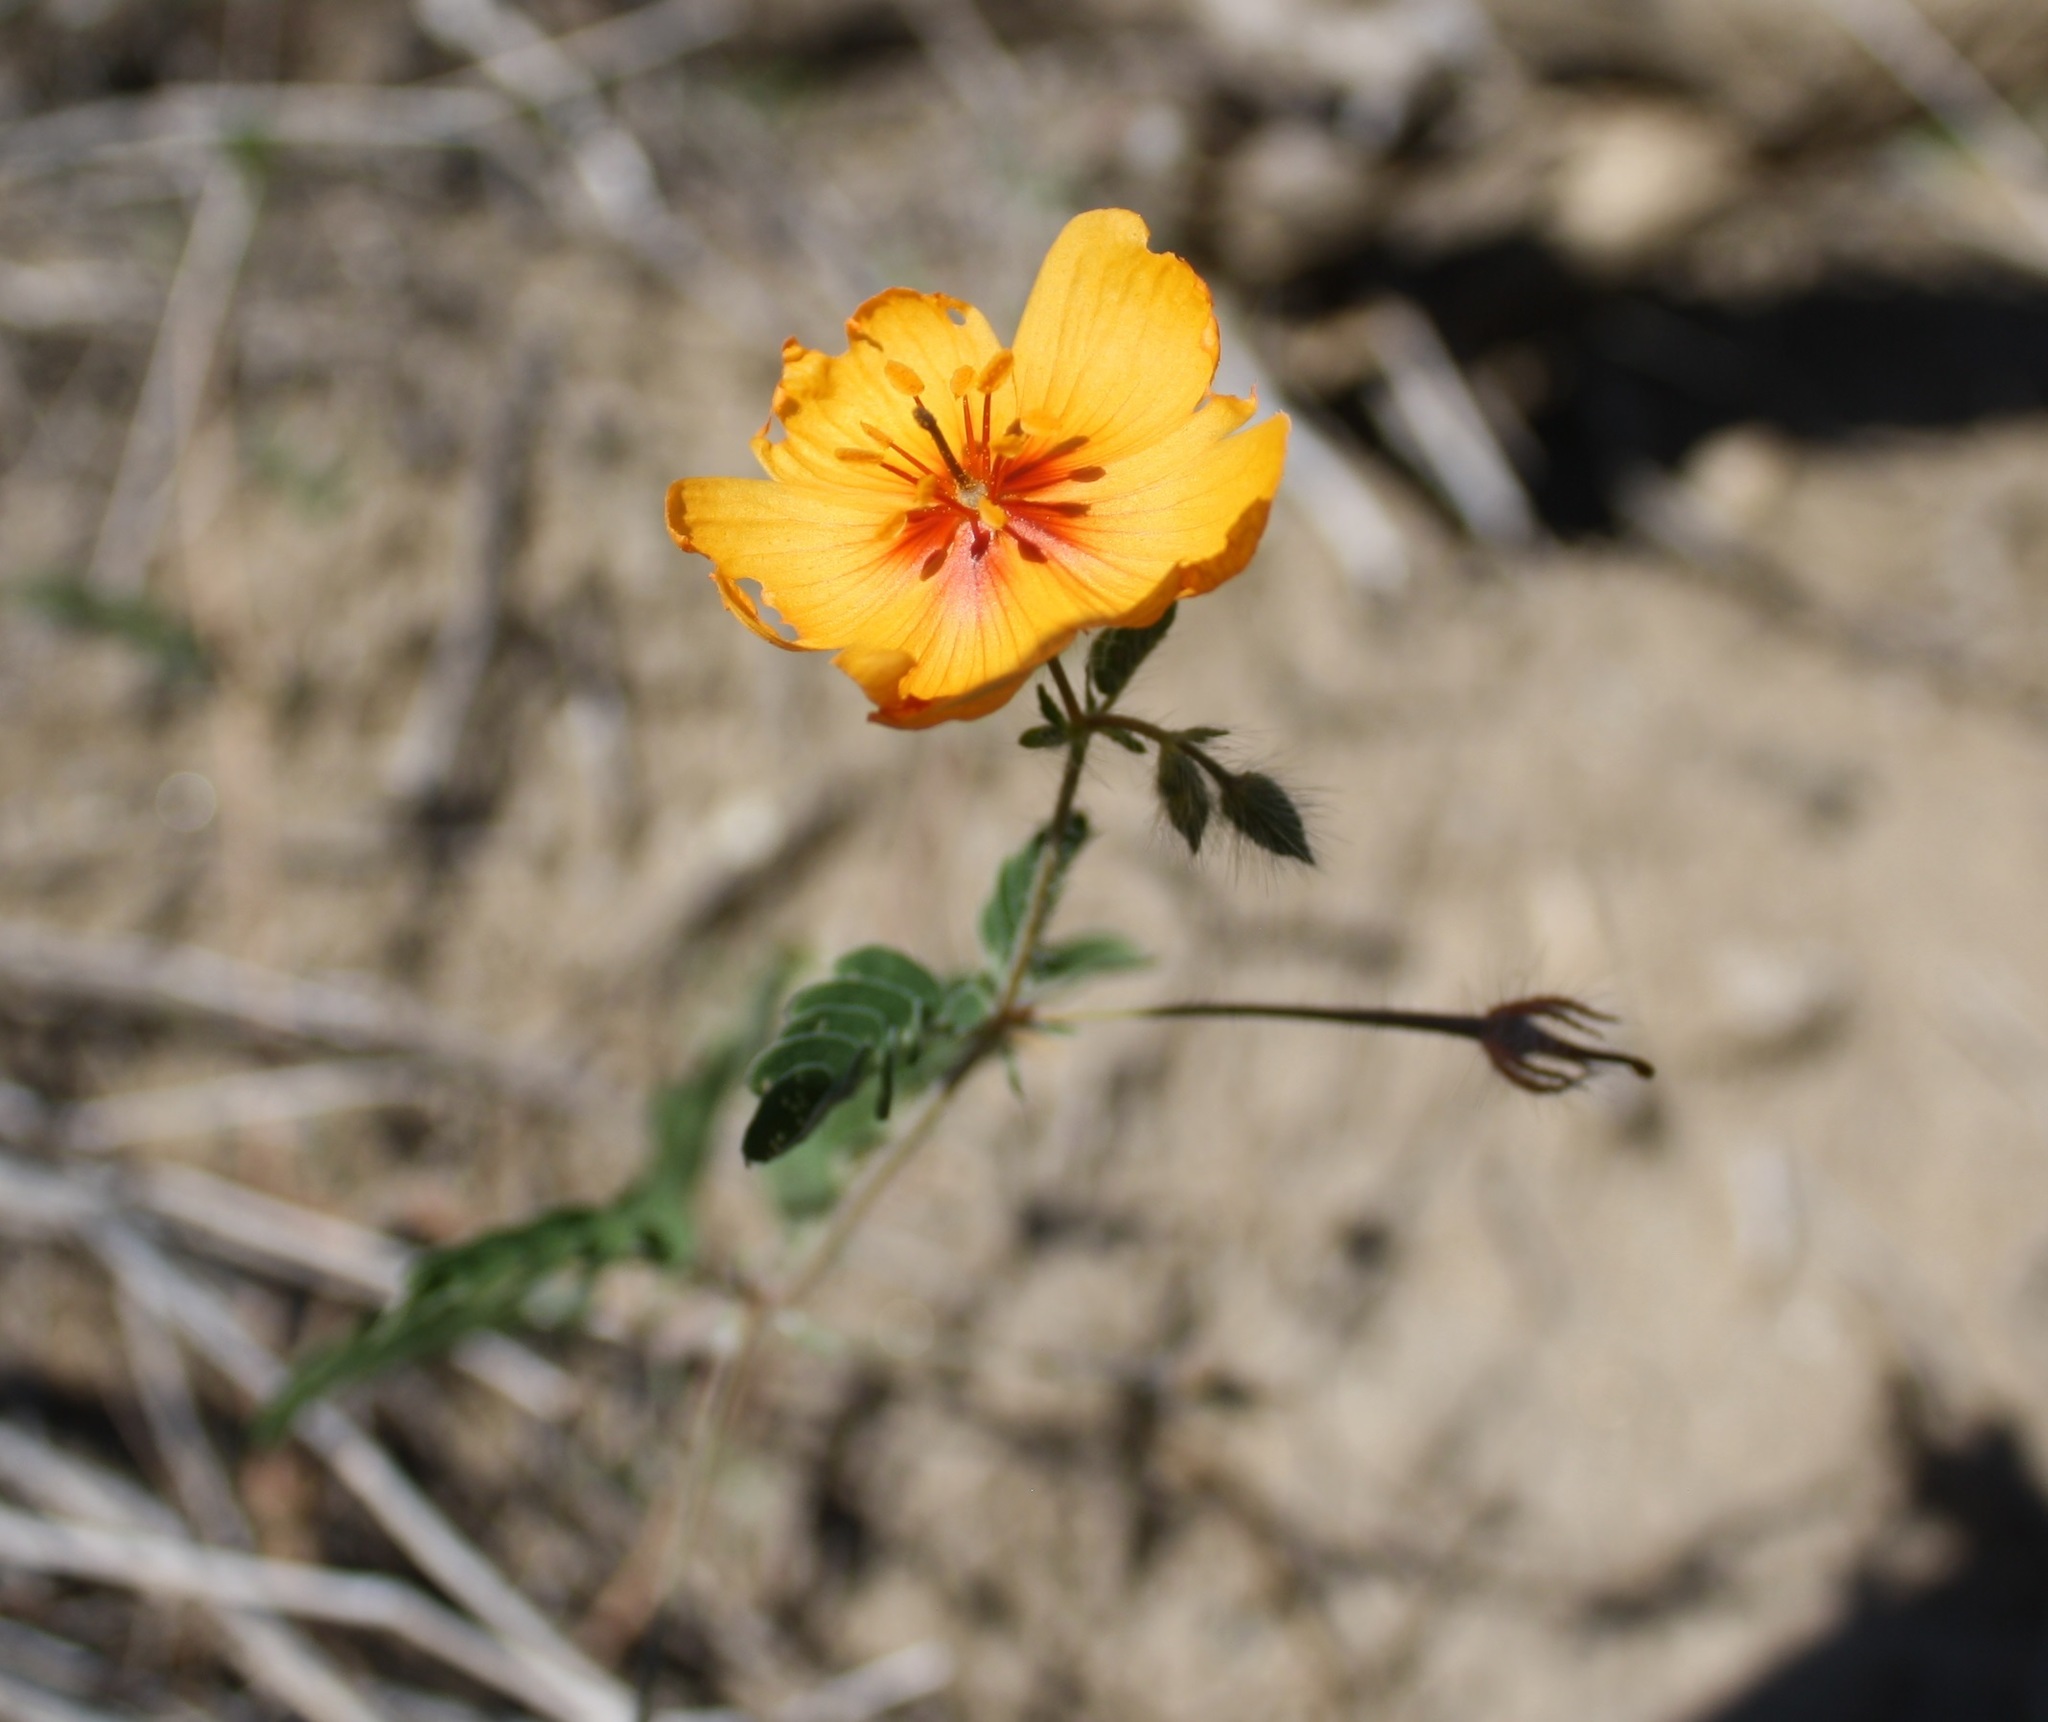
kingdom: Plantae
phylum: Tracheophyta
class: Magnoliopsida
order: Zygophyllales
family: Zygophyllaceae
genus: Kallstroemia
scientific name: Kallstroemia grandiflora
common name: Arizona-poppy
